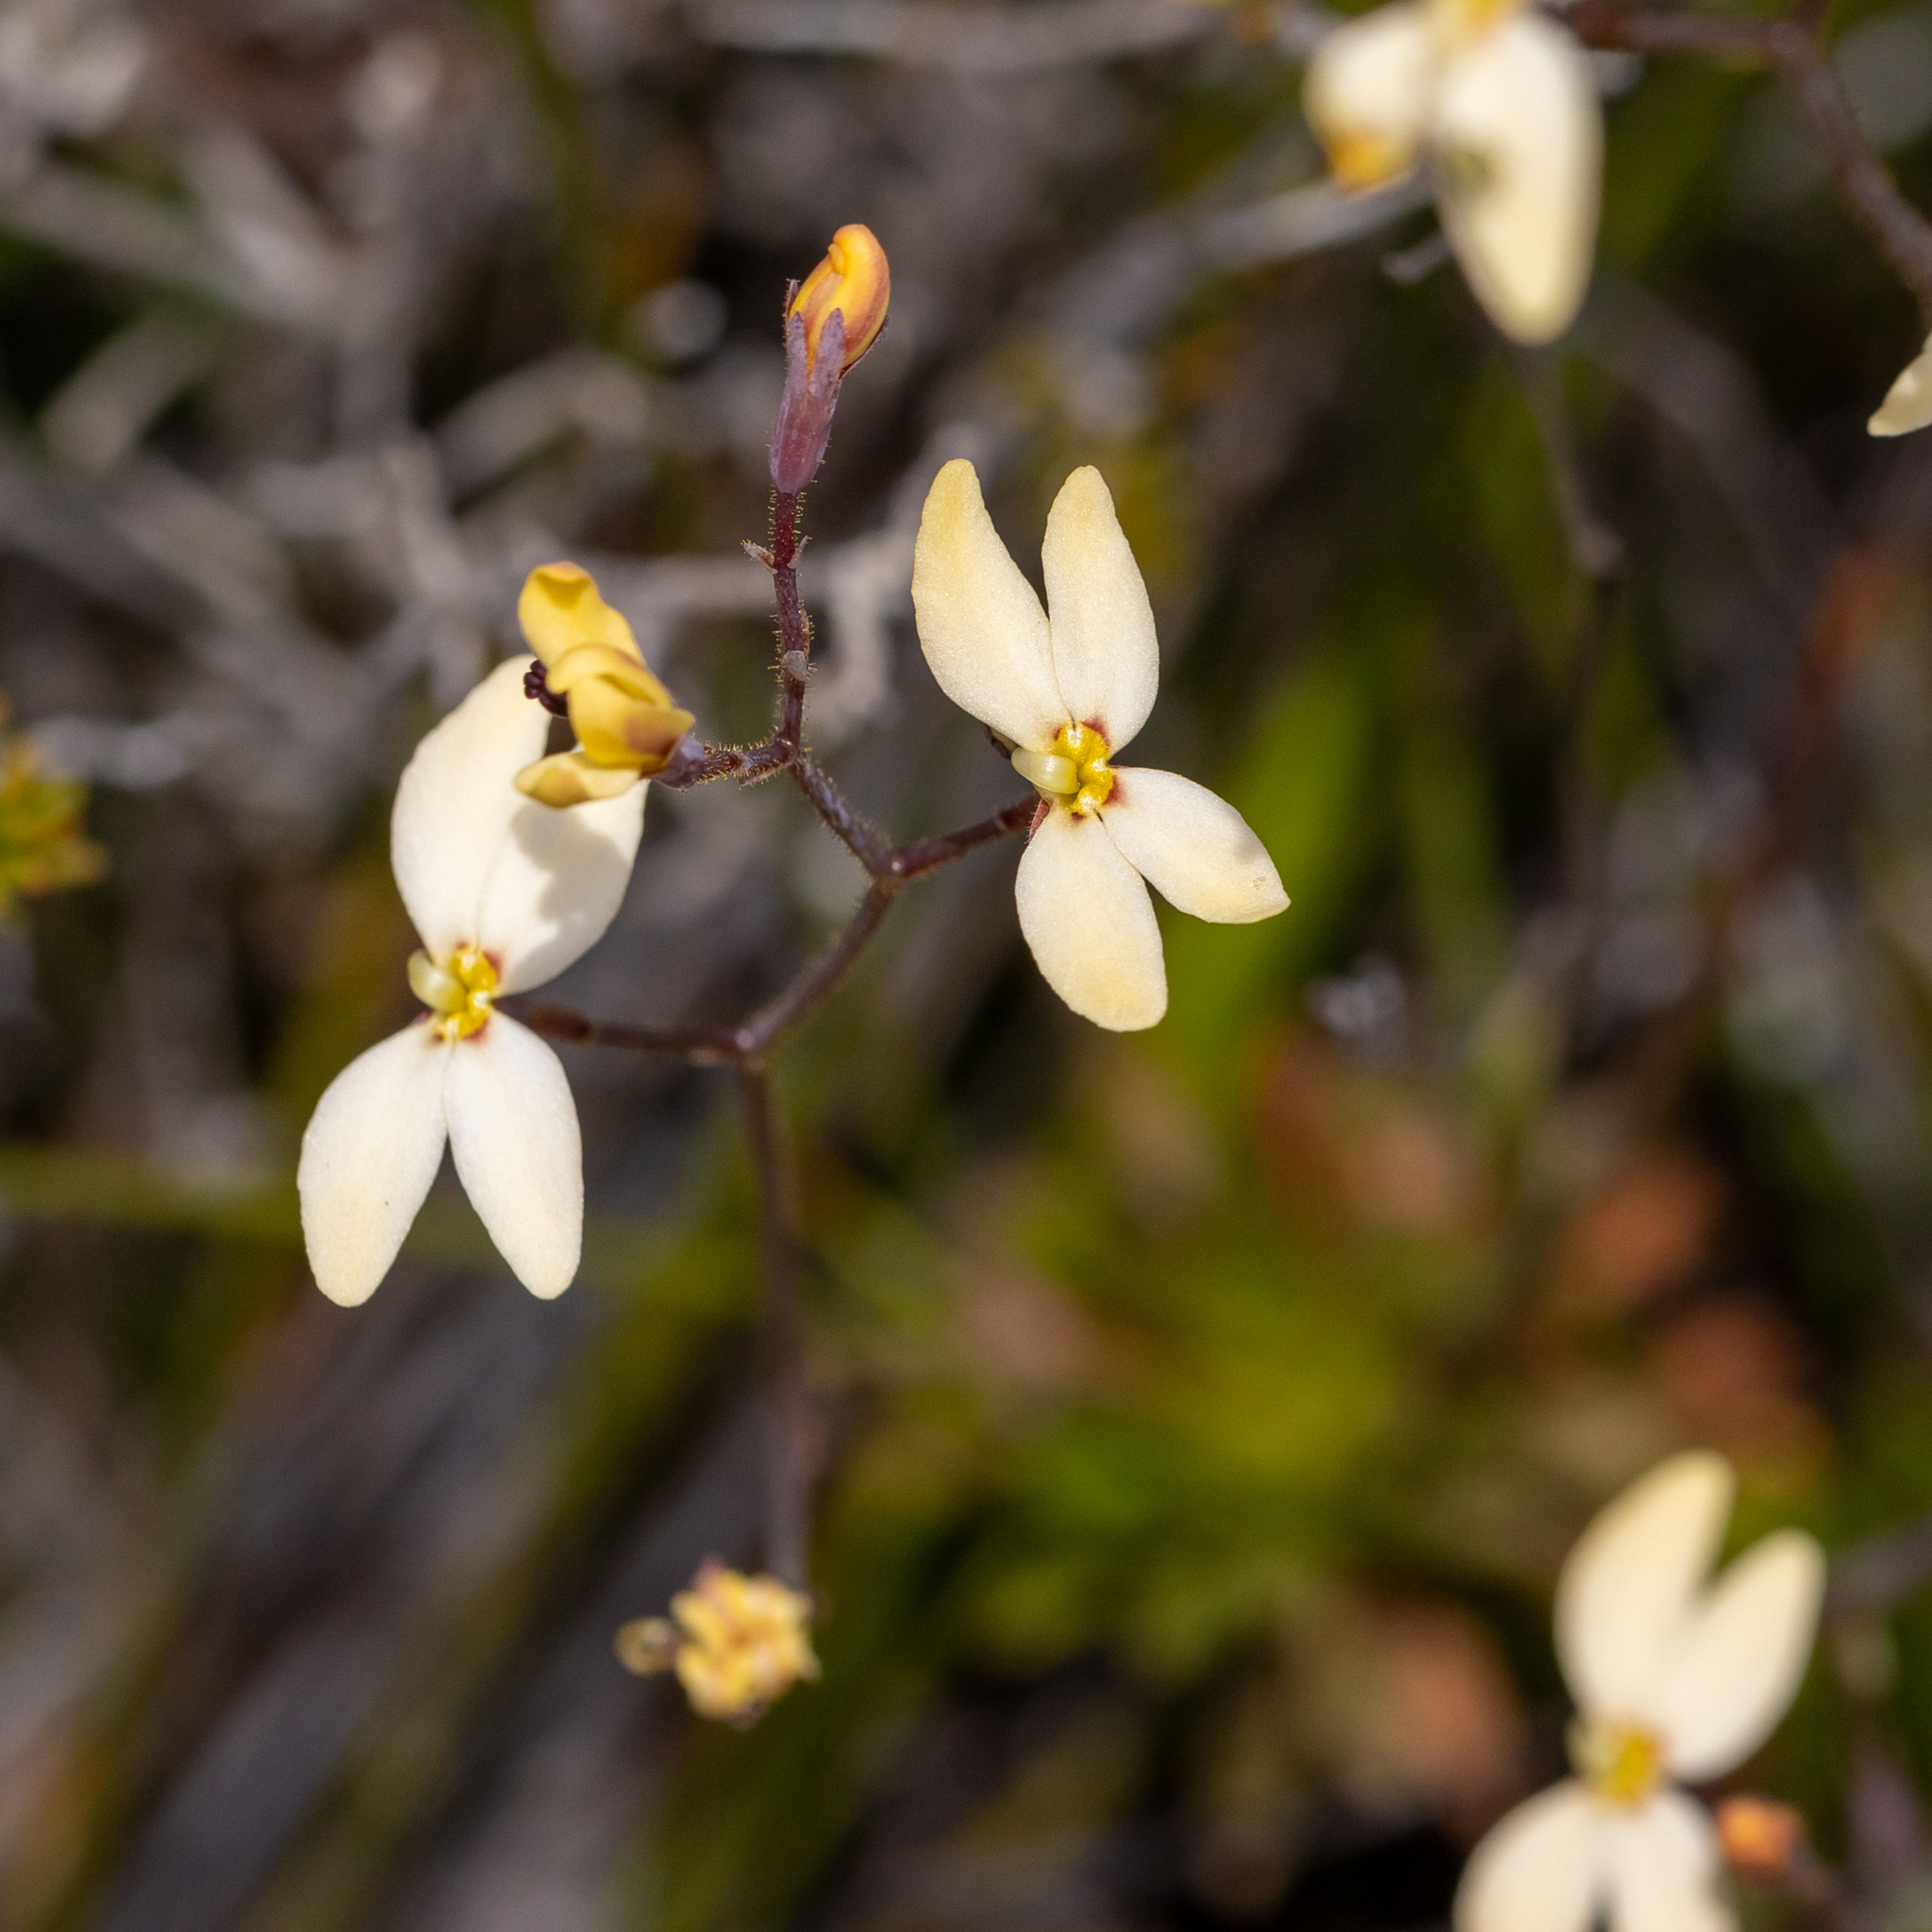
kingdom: Plantae
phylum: Tracheophyta
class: Magnoliopsida
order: Asterales
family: Stylidiaceae
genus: Stylidium
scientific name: Stylidium rupestre
